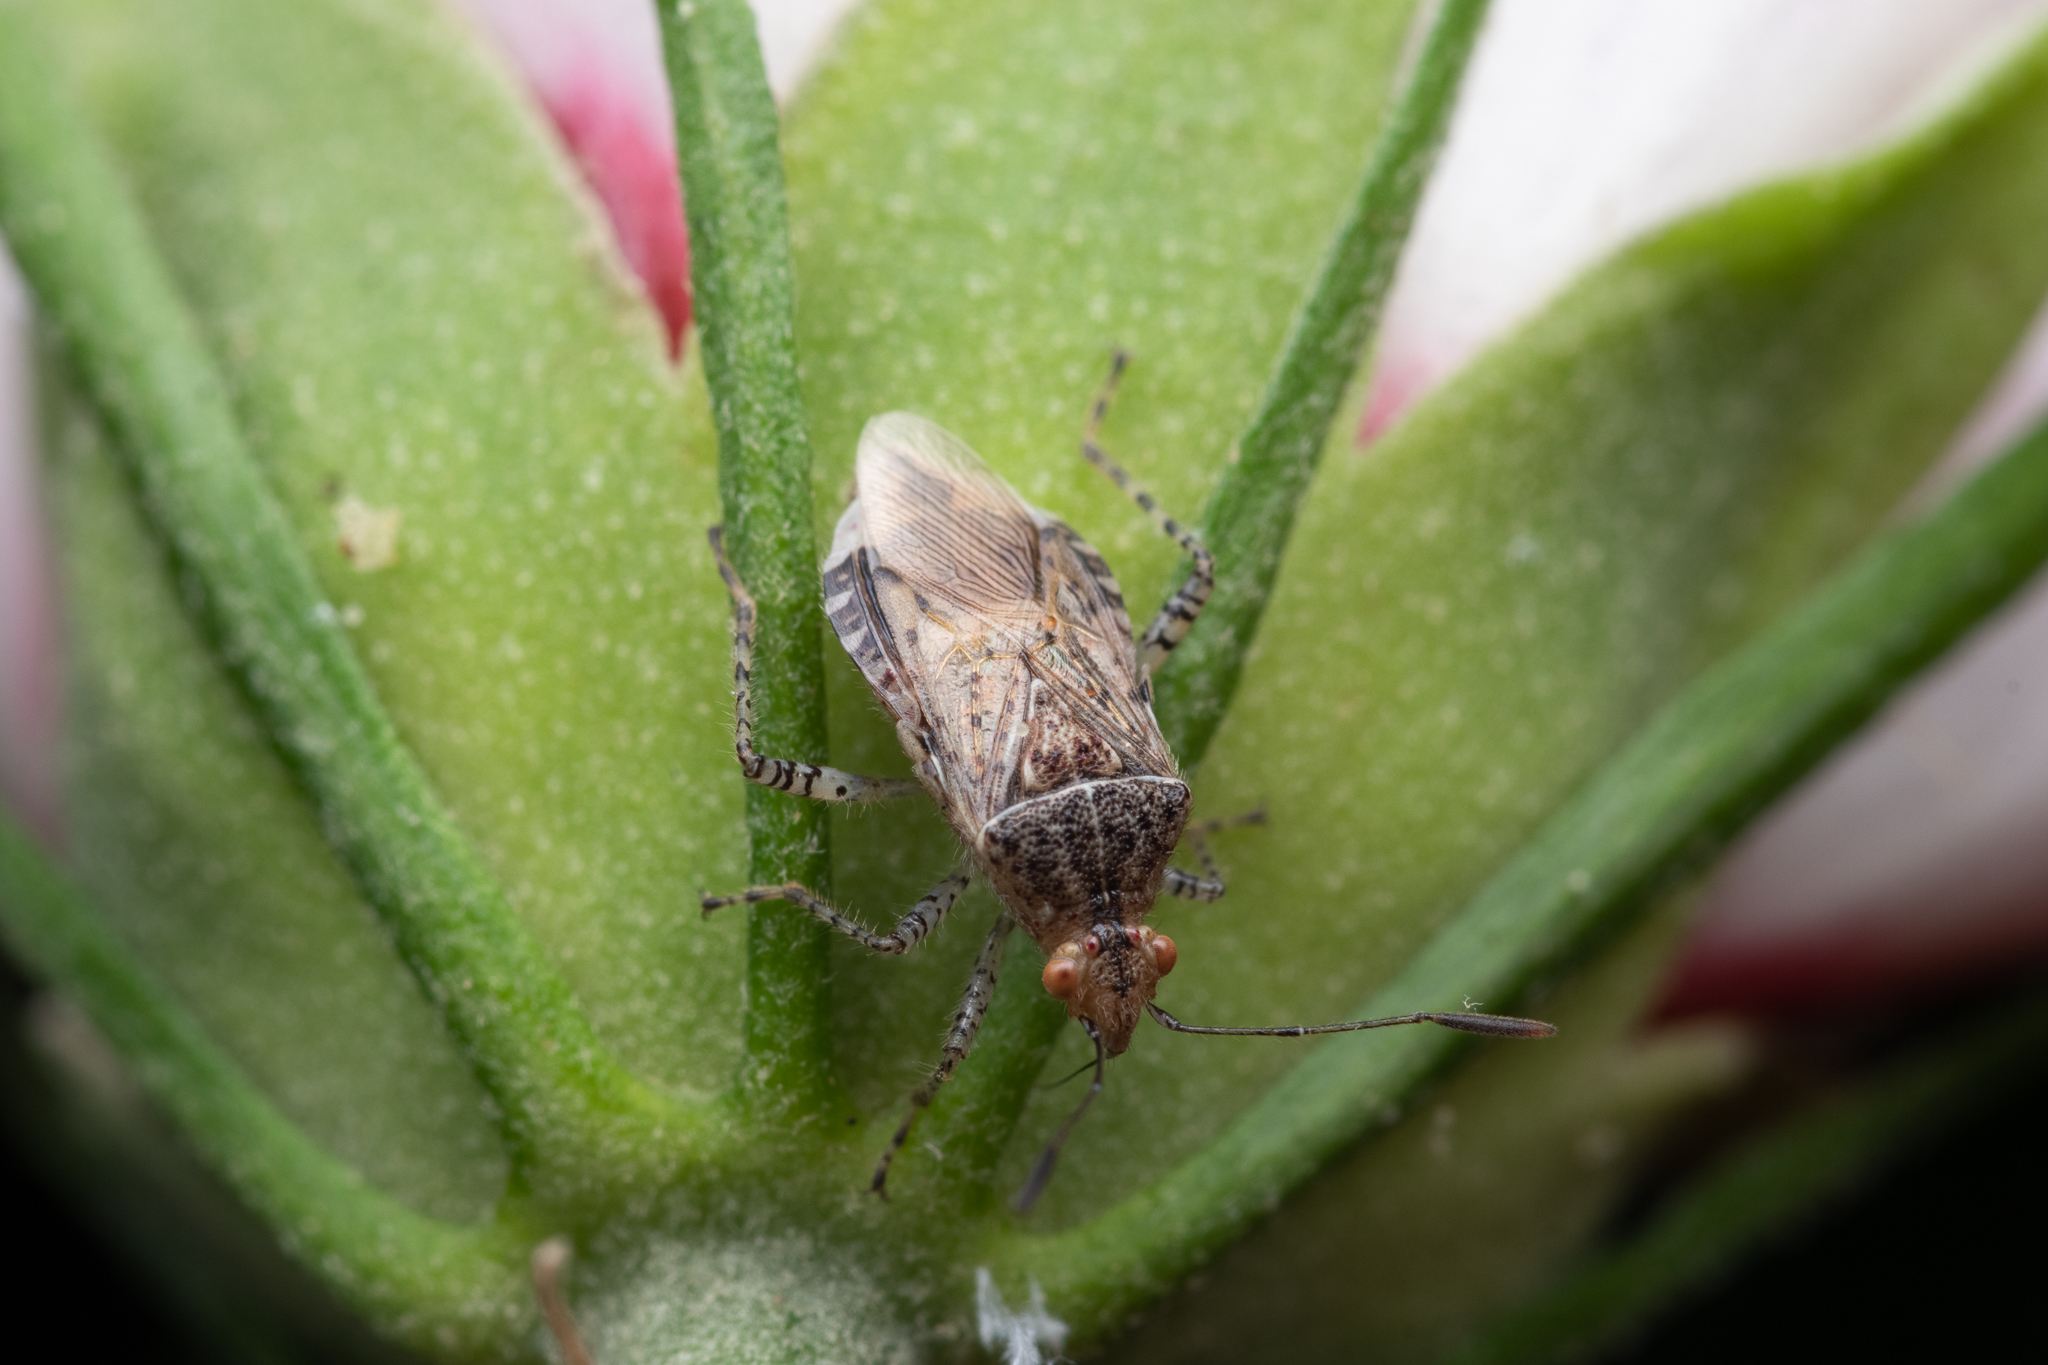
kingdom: Animalia
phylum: Arthropoda
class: Insecta
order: Hemiptera
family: Rhopalidae
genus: Niesthrea
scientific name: Niesthrea louisianica
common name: Scentless plant bug
